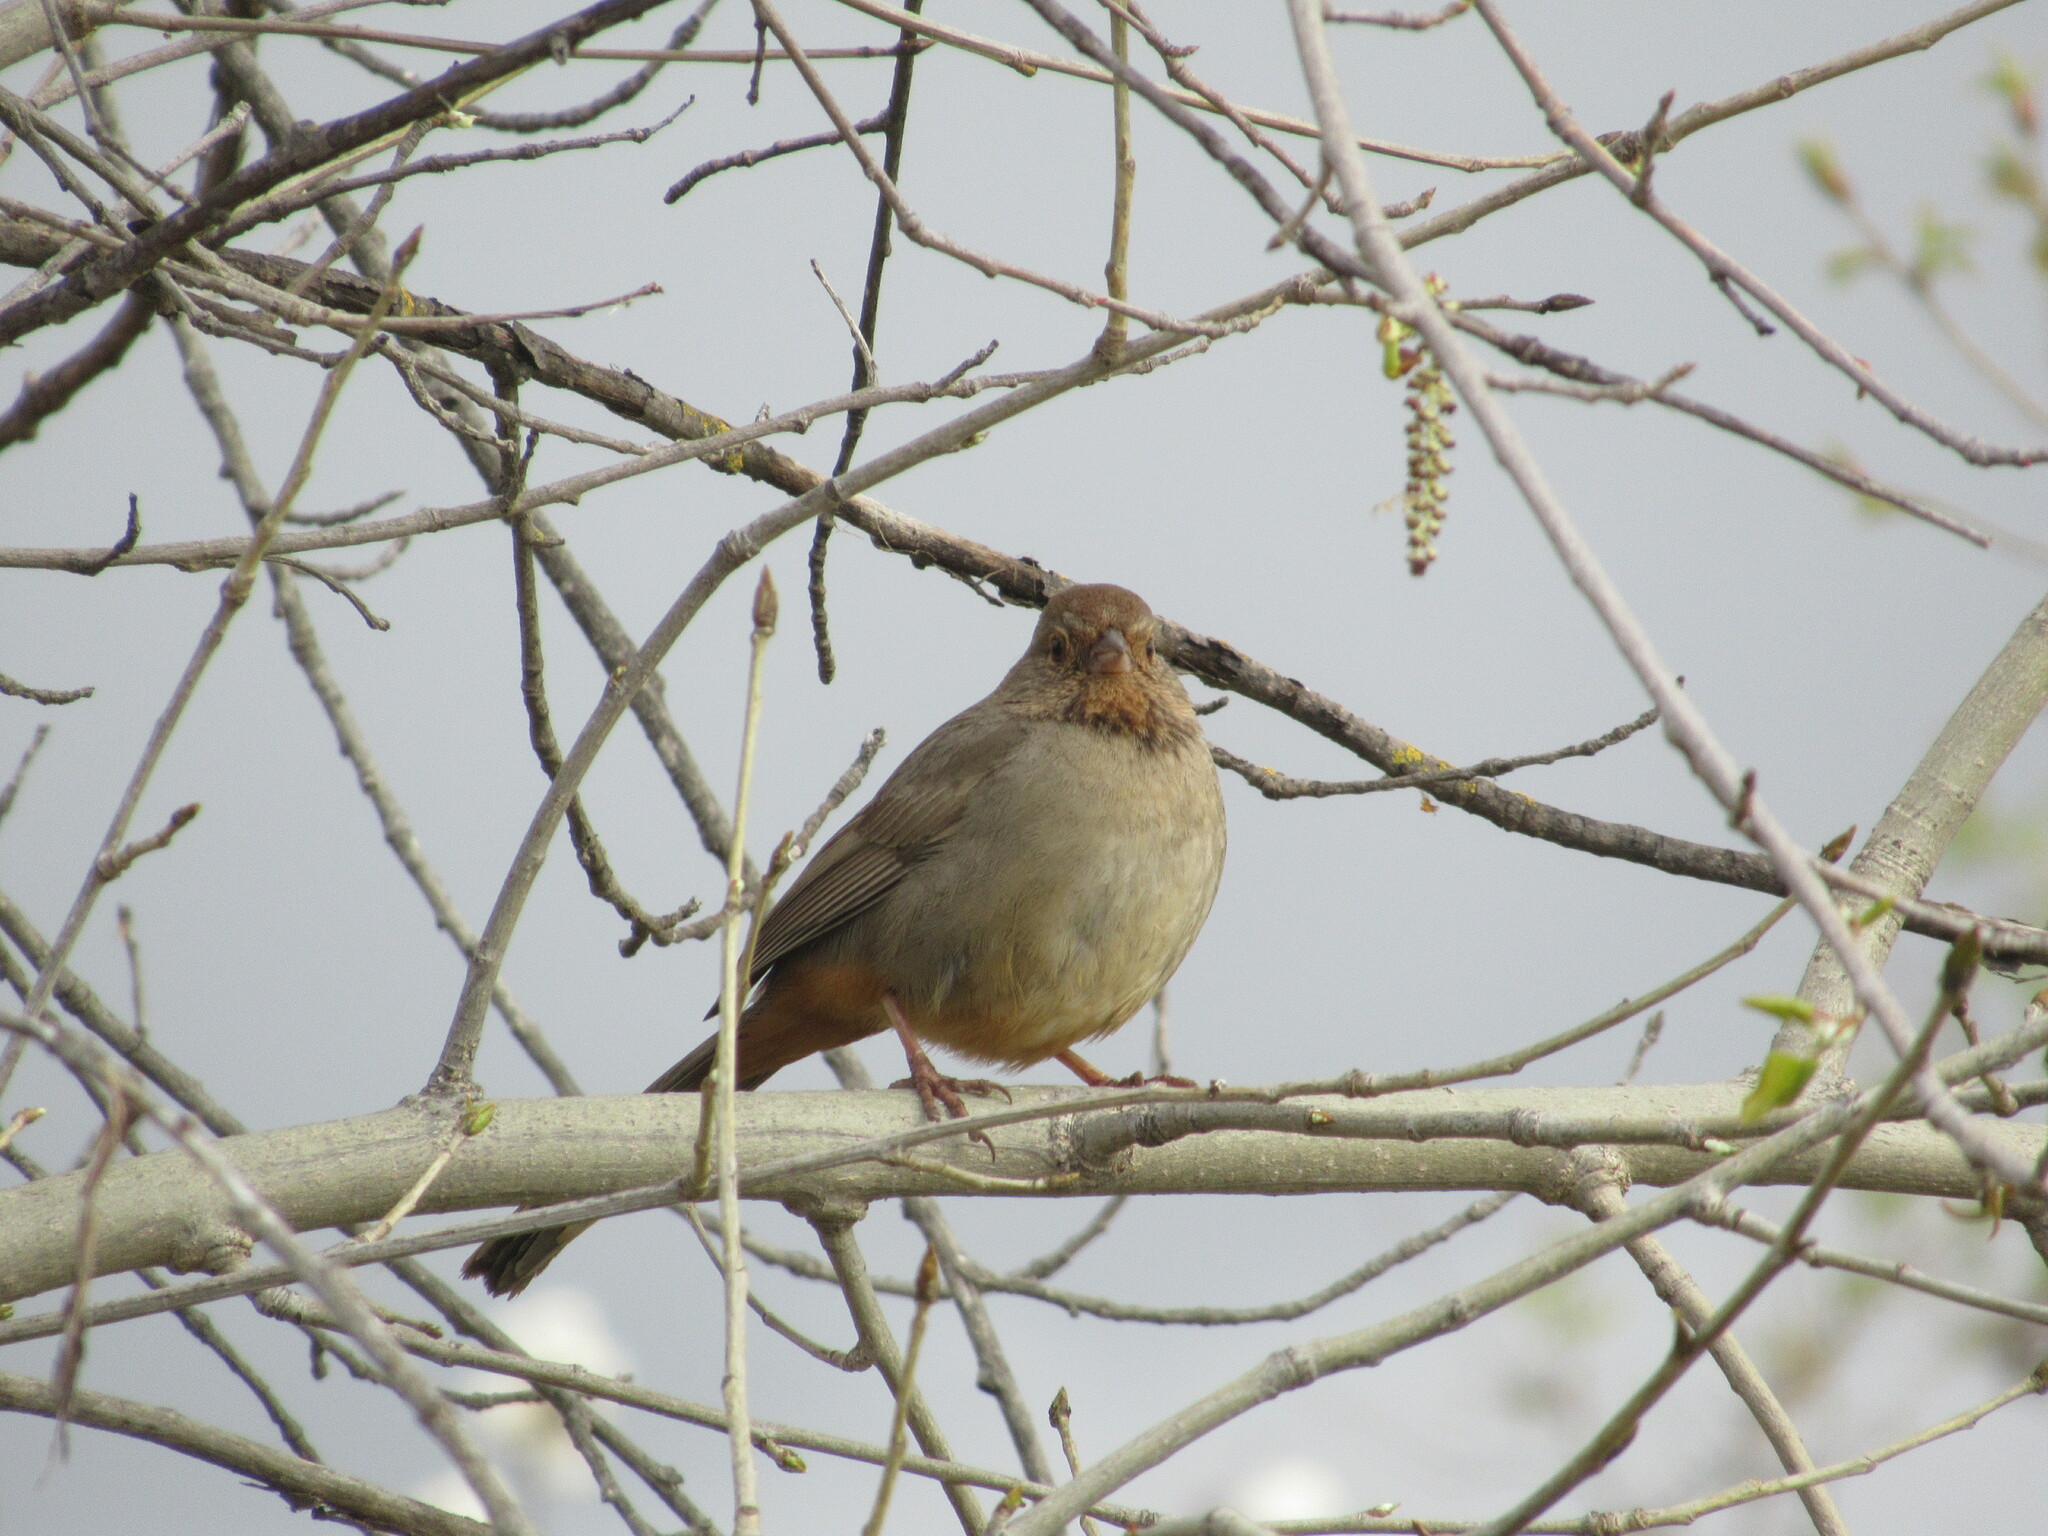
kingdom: Animalia
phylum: Chordata
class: Aves
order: Passeriformes
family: Passerellidae
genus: Melozone
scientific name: Melozone crissalis
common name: California towhee
